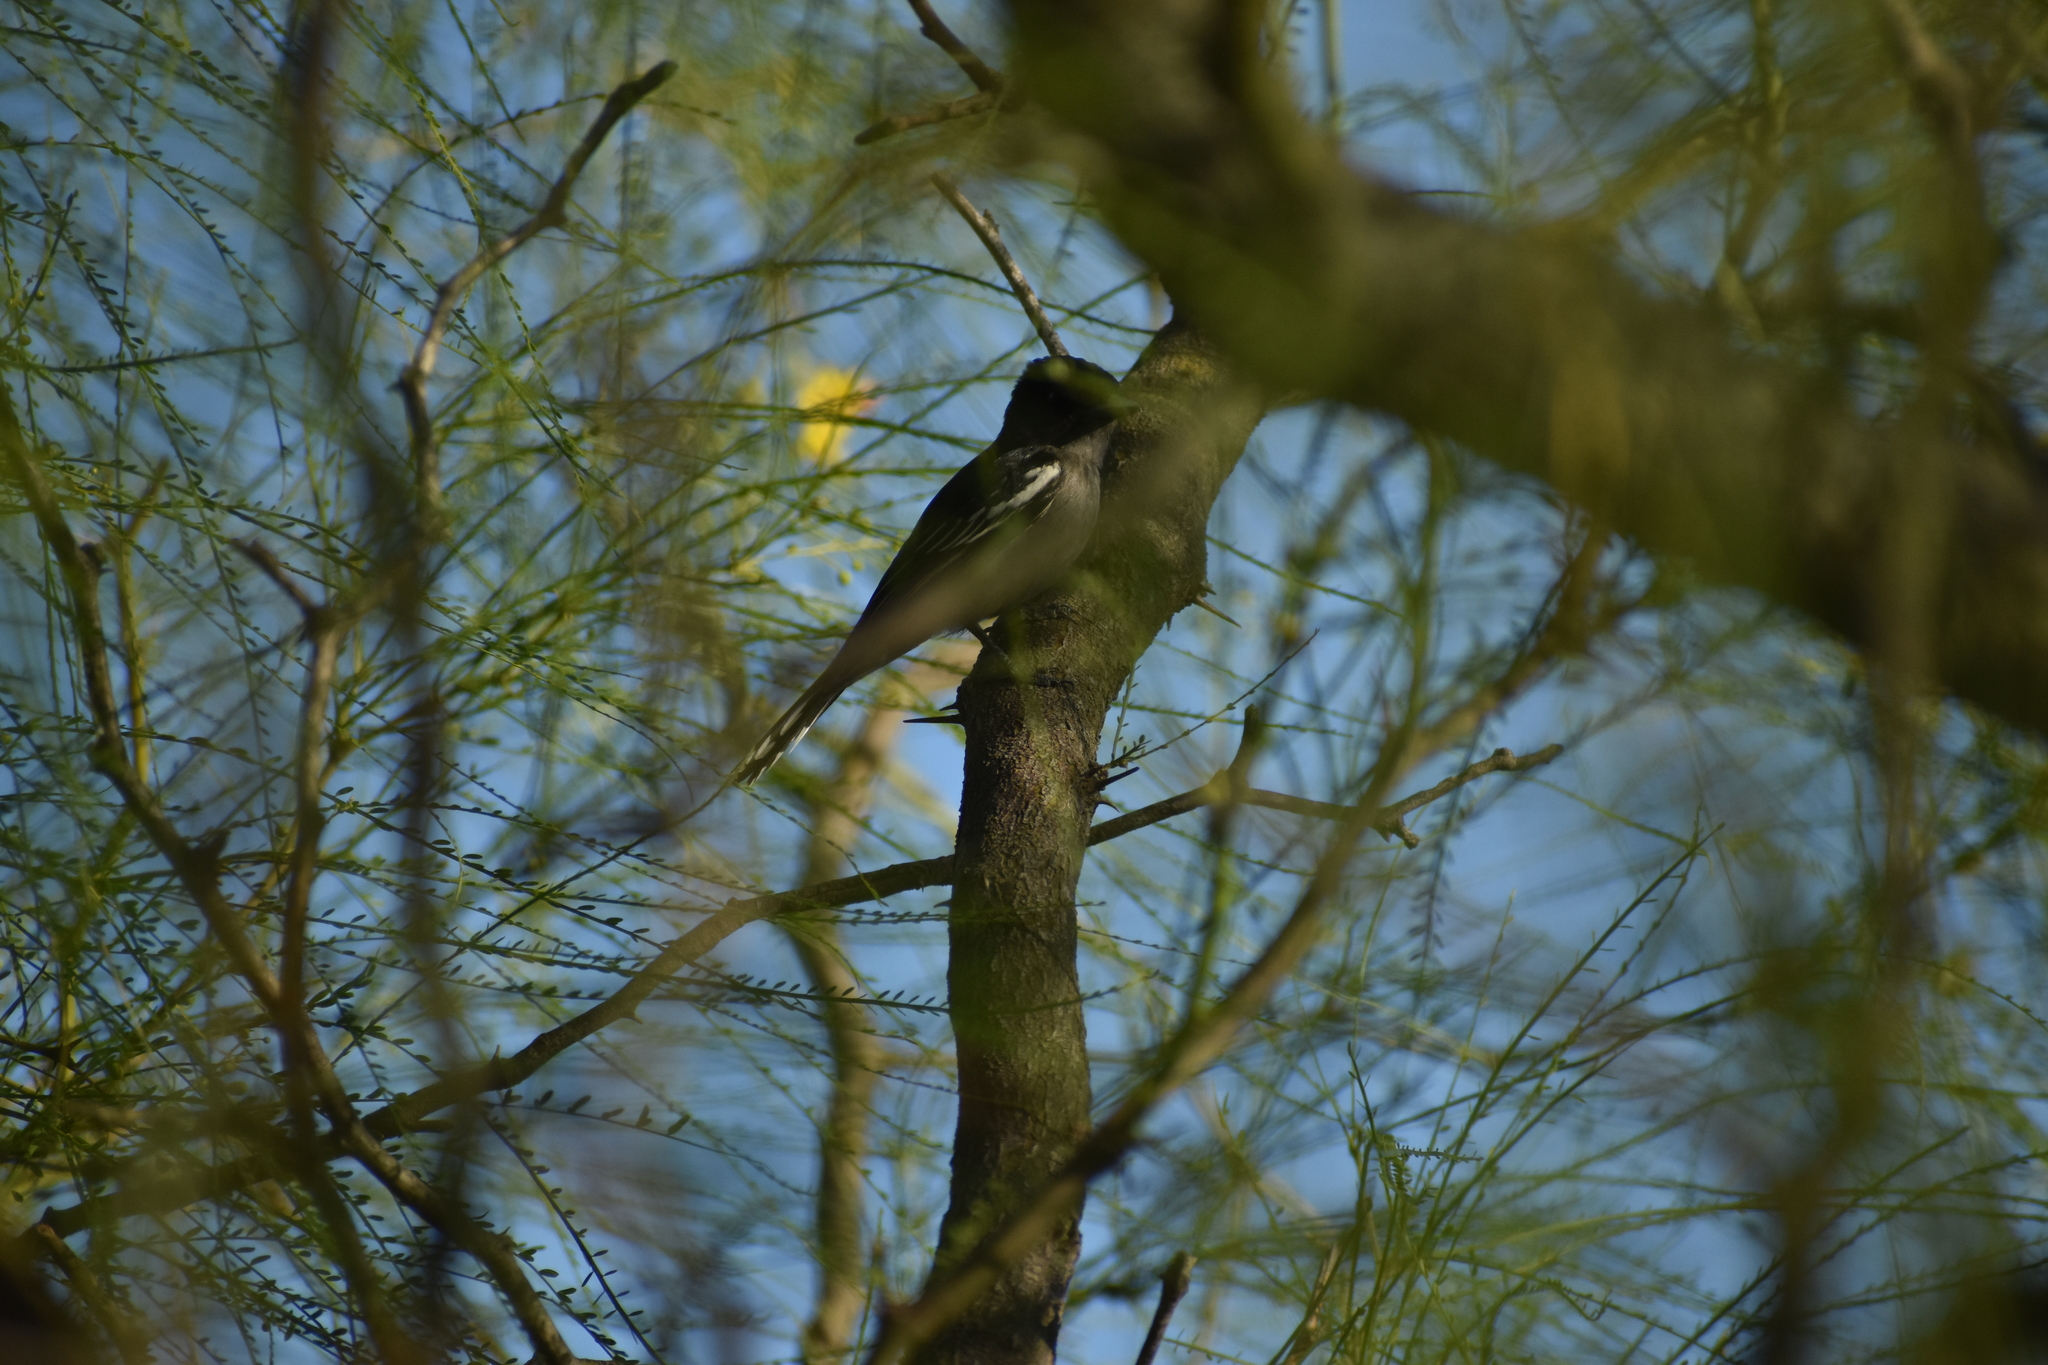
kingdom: Animalia
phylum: Chordata
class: Aves
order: Passeriformes
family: Cotingidae
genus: Pachyramphus
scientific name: Pachyramphus polychopterus
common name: White-winged becard
